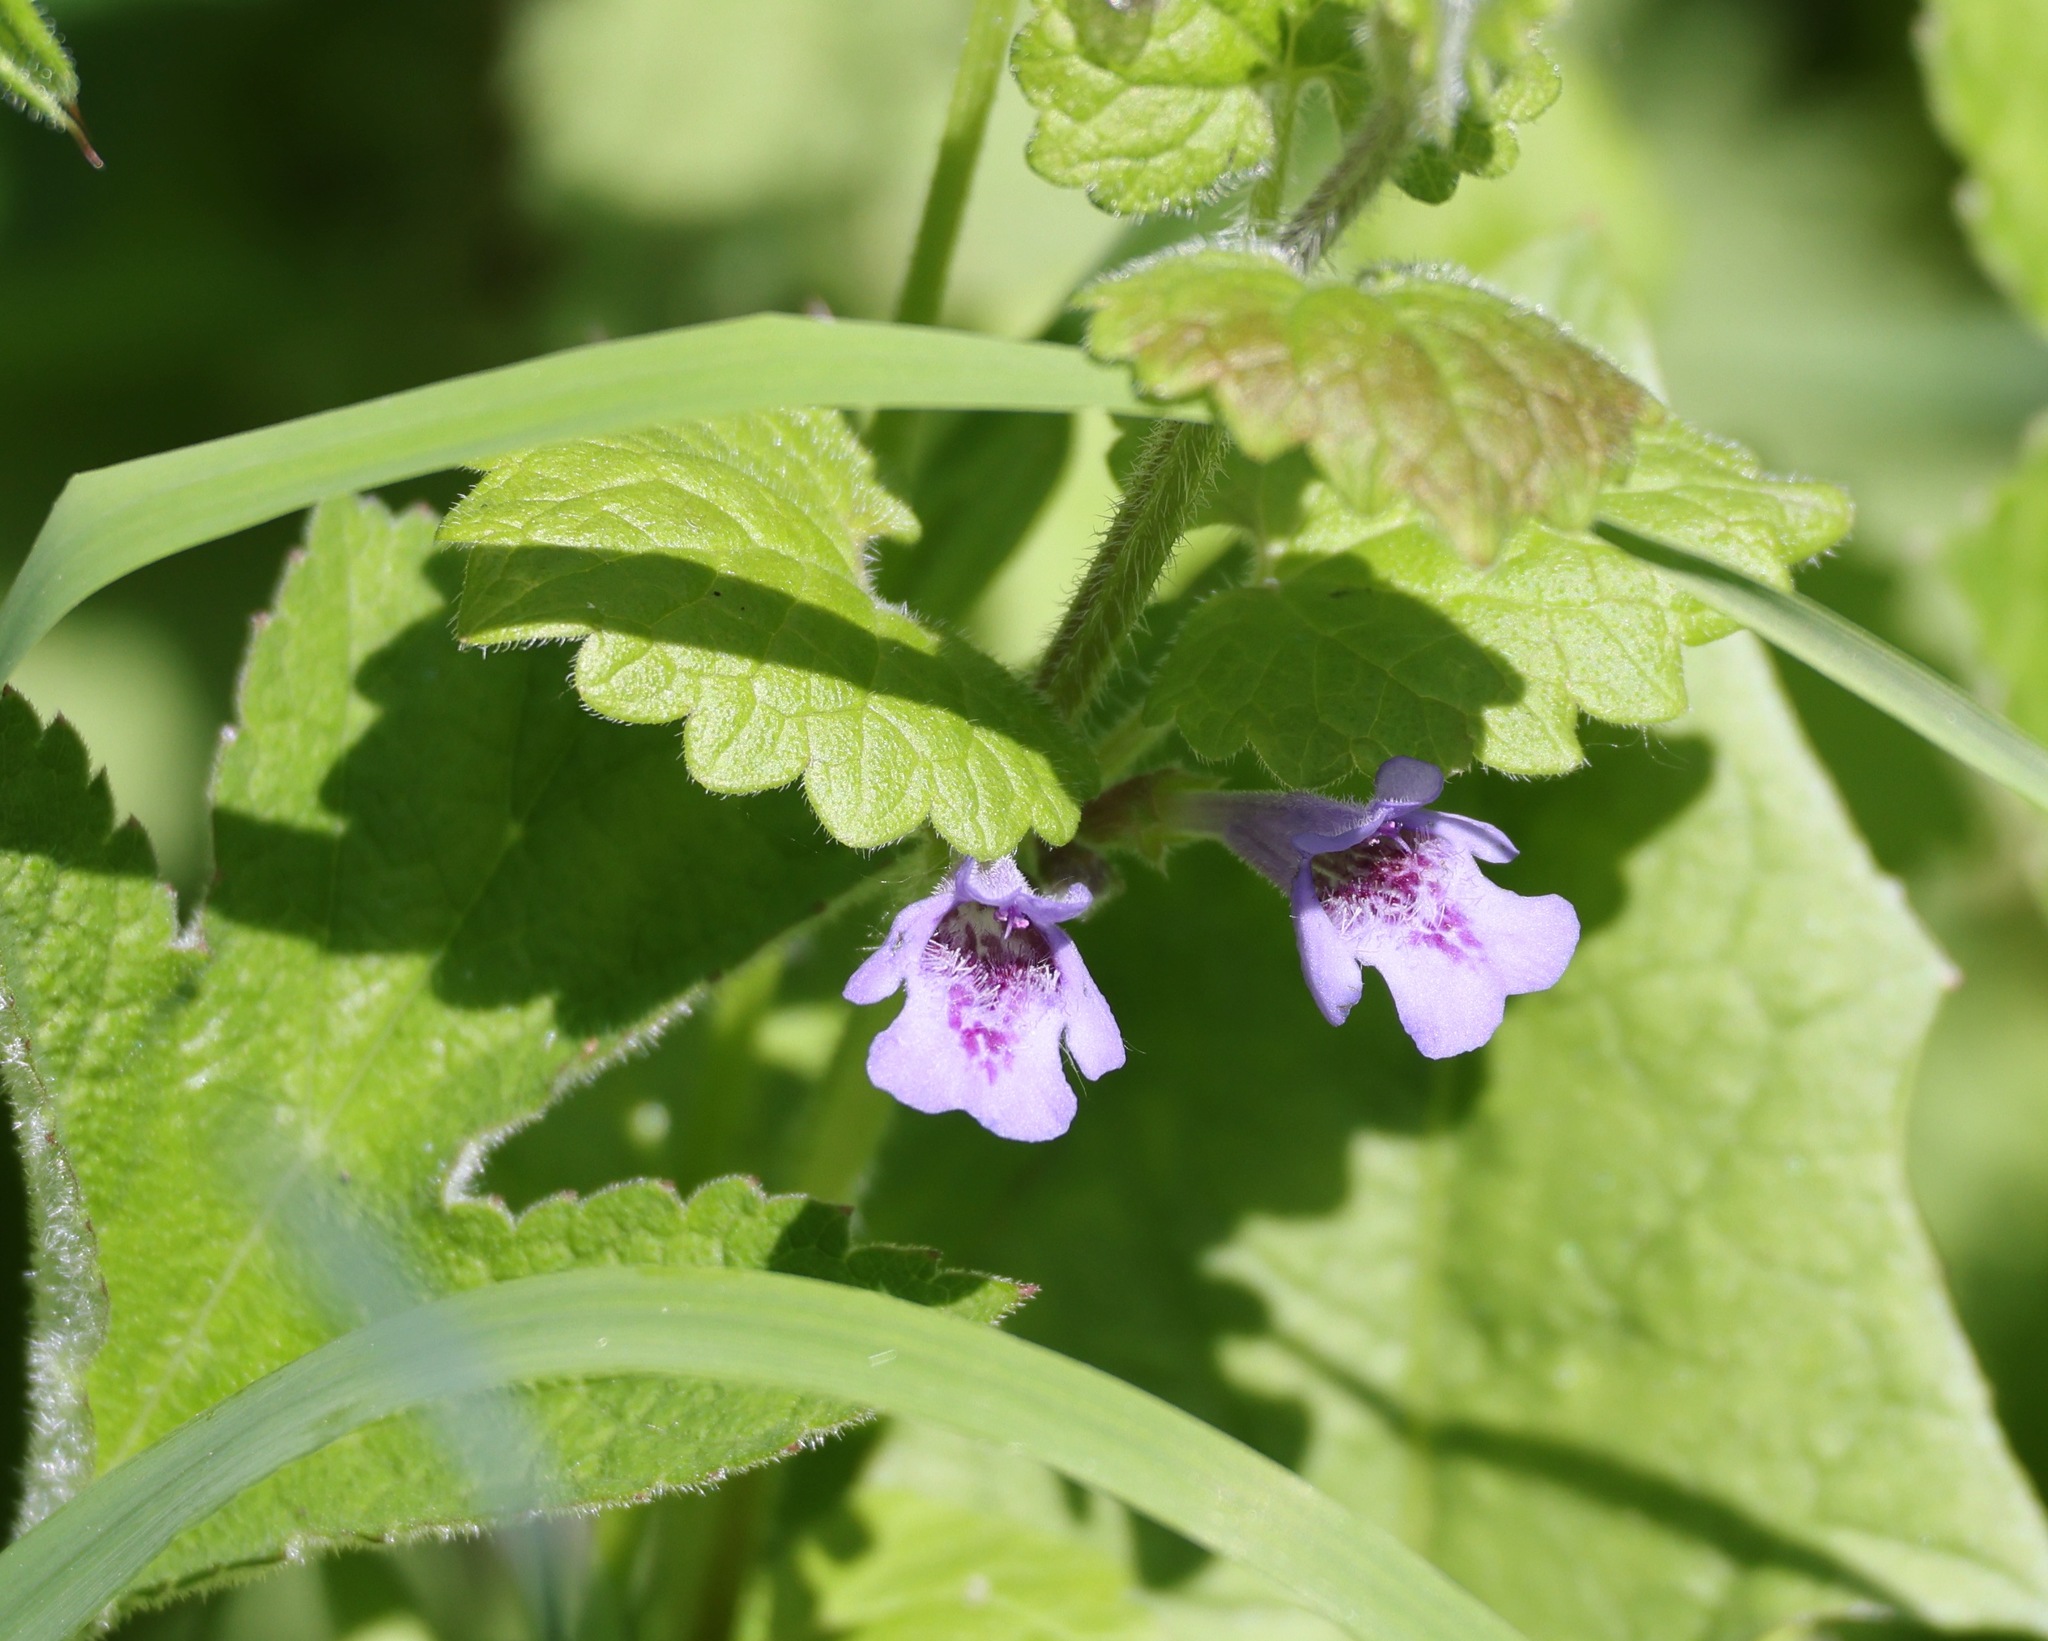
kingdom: Plantae
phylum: Tracheophyta
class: Magnoliopsida
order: Lamiales
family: Lamiaceae
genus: Glechoma
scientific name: Glechoma hederacea
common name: Ground ivy
